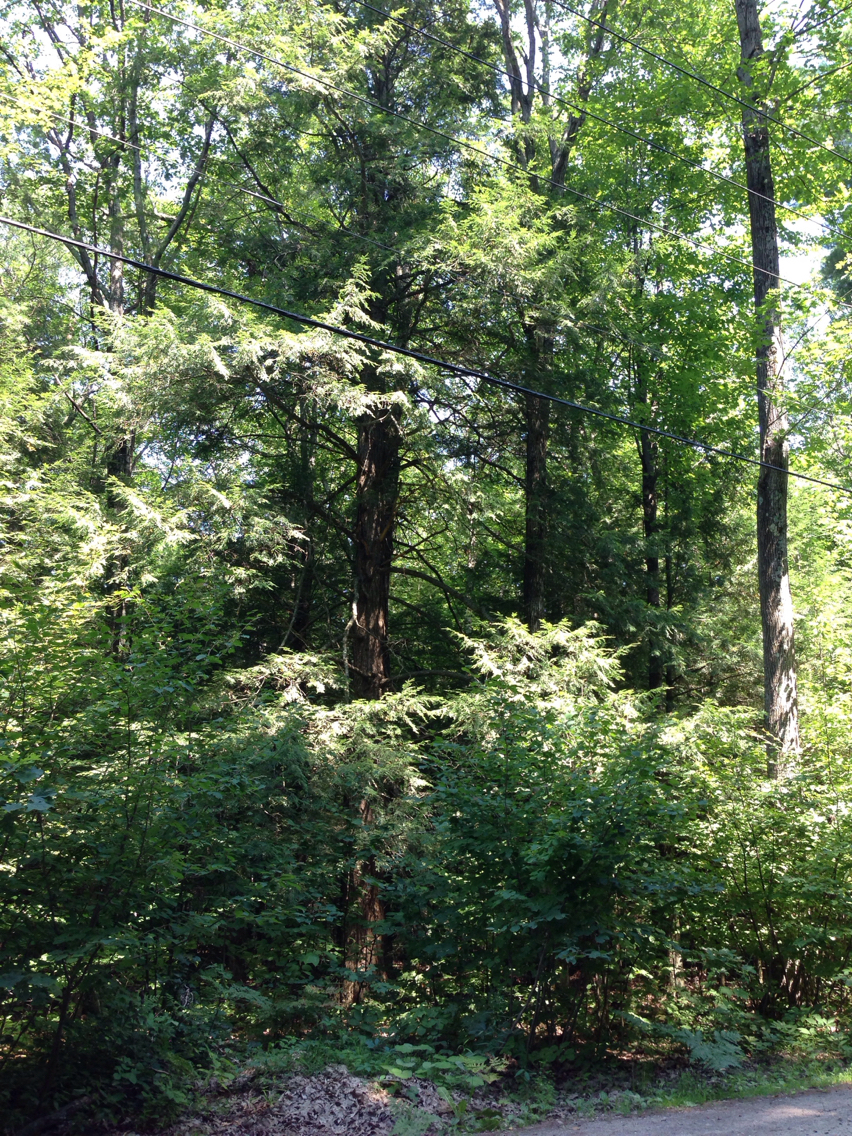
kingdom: Plantae
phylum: Tracheophyta
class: Pinopsida
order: Pinales
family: Pinaceae
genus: Tsuga
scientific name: Tsuga canadensis
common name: Eastern hemlock
